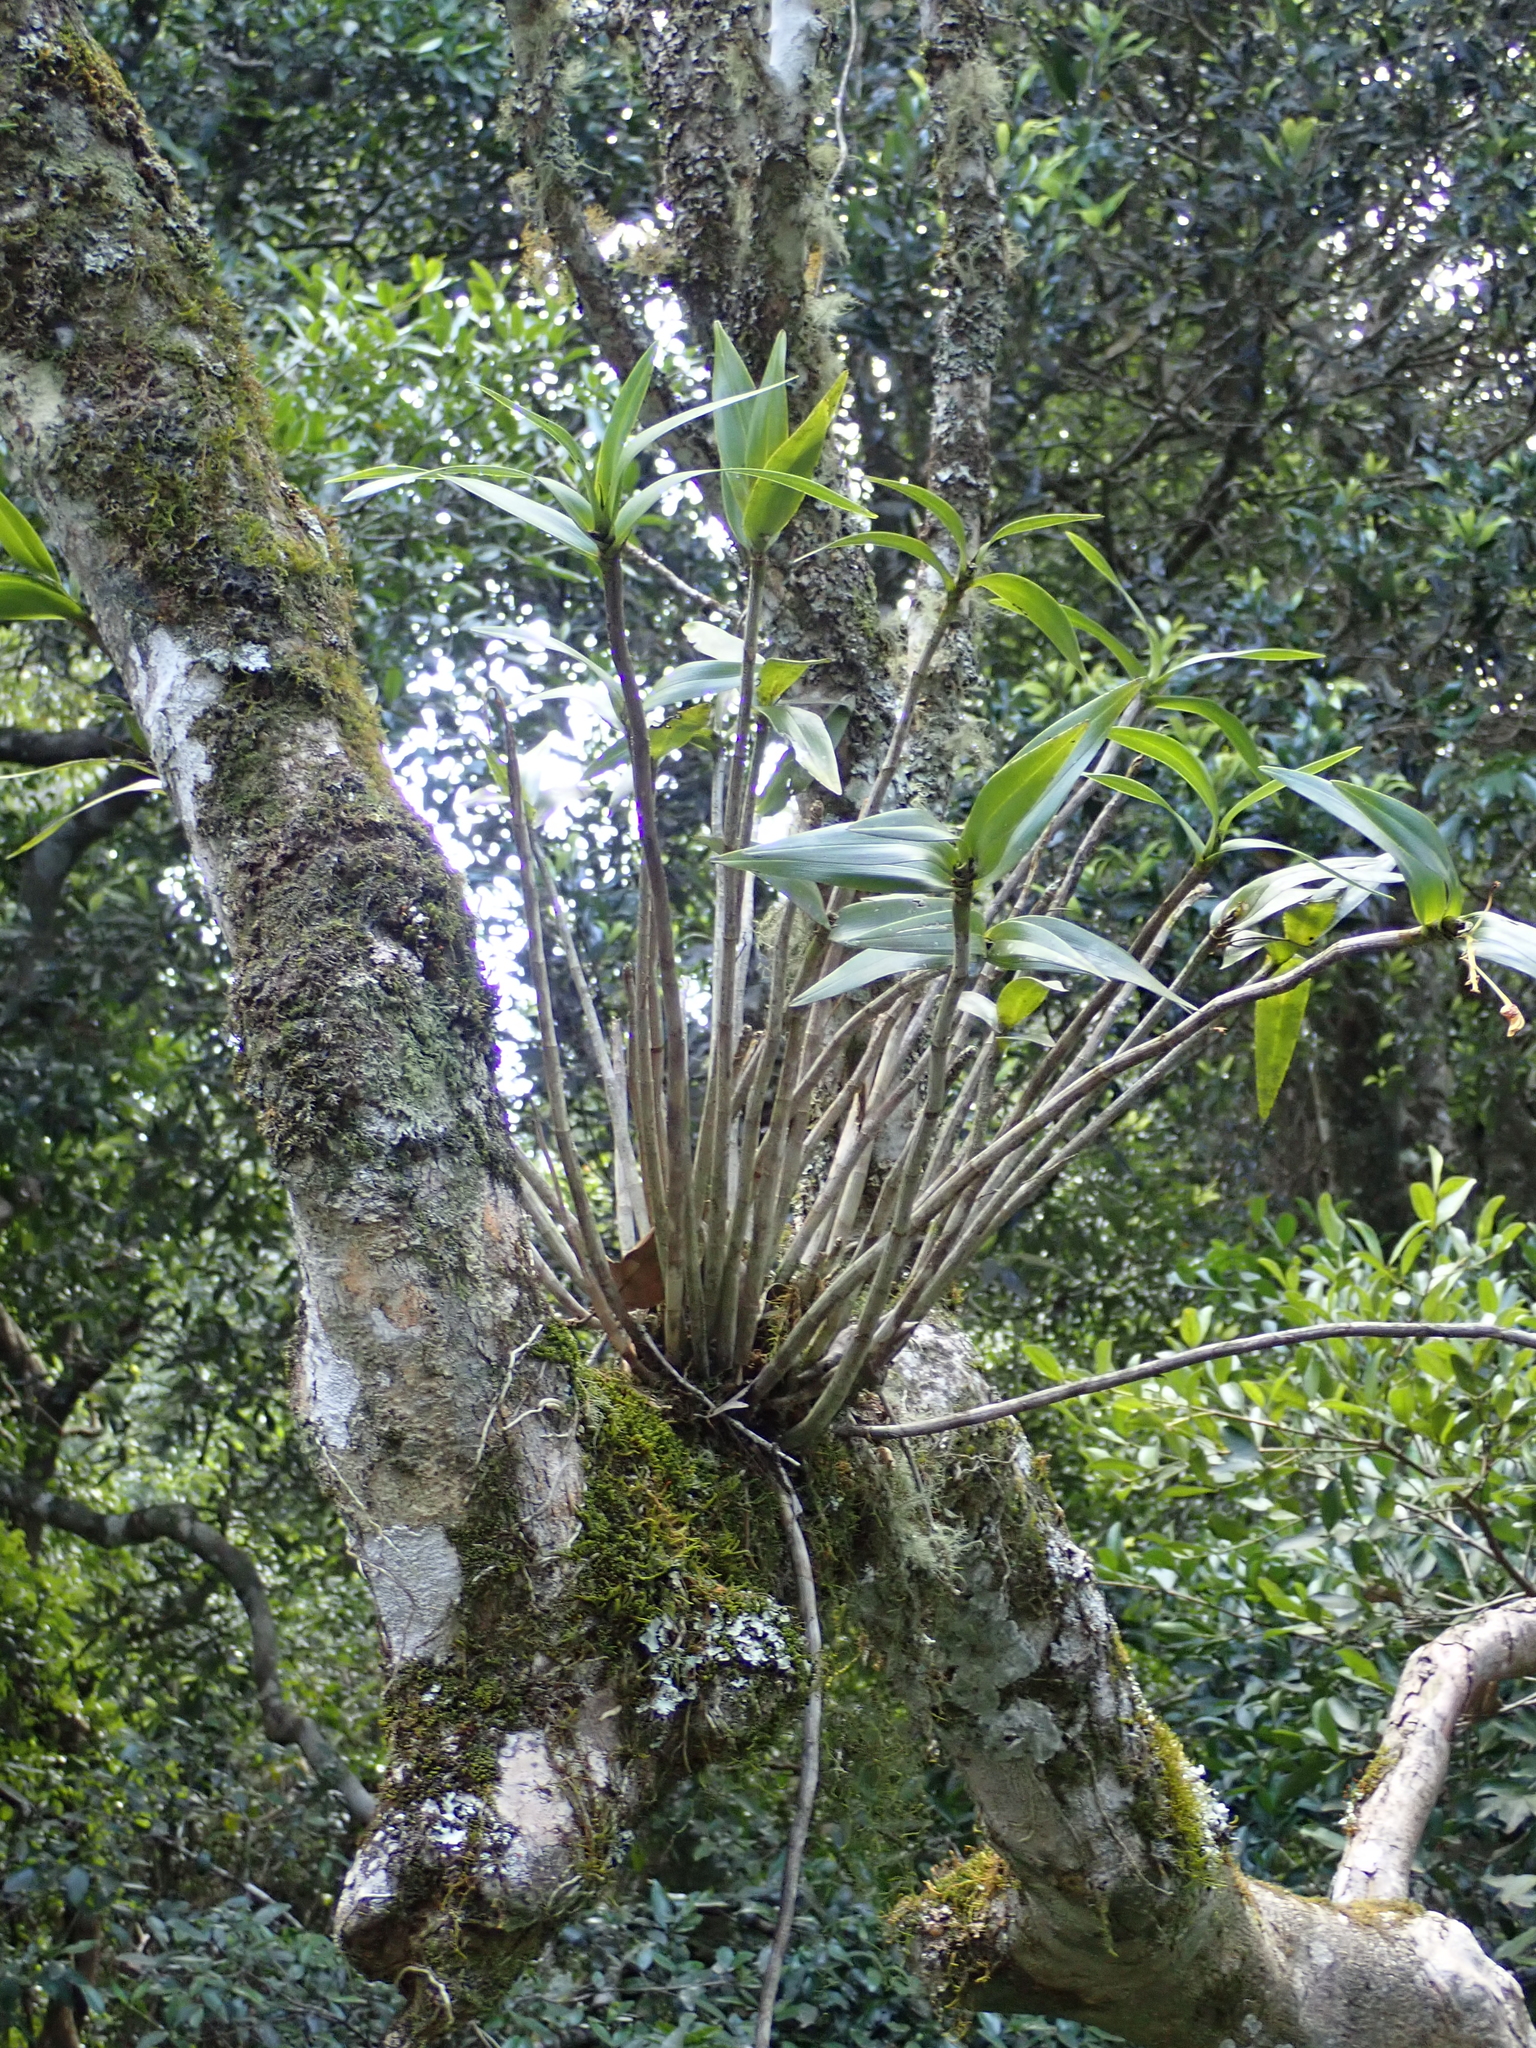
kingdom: Plantae
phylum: Tracheophyta
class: Liliopsida
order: Asparagales
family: Orchidaceae
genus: Dendrobium
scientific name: Dendrobium gracilicaule
